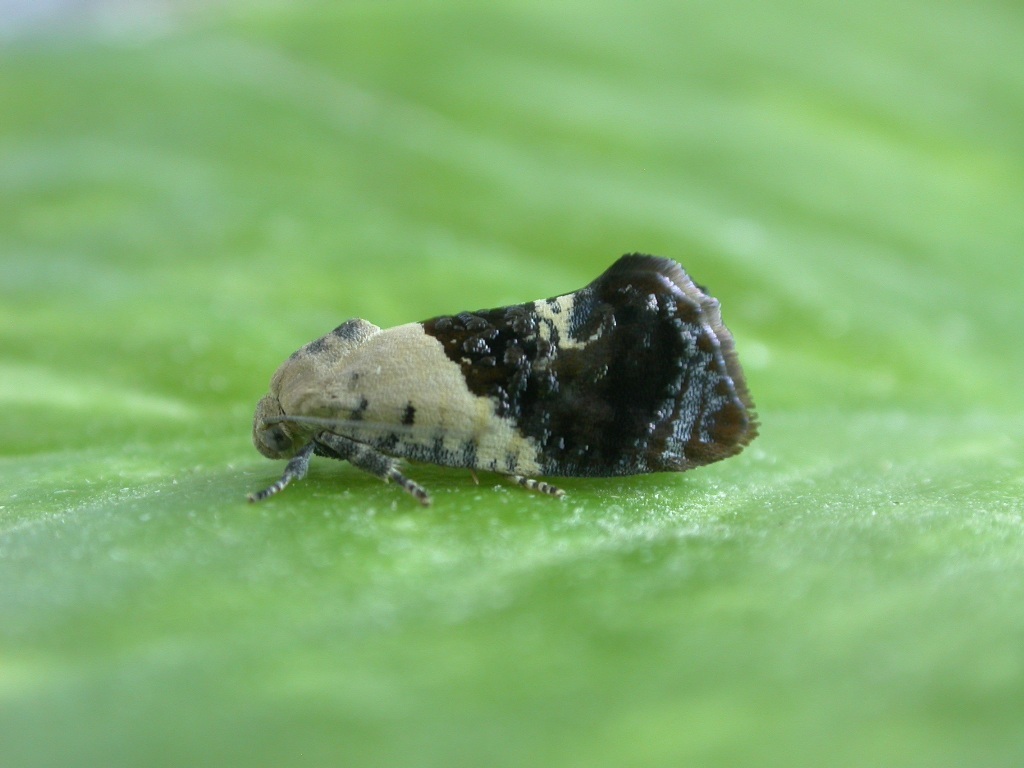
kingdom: Animalia
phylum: Arthropoda
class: Insecta
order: Lepidoptera
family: Depressariidae
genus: Hypertropha
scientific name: Hypertropha chlaenota
